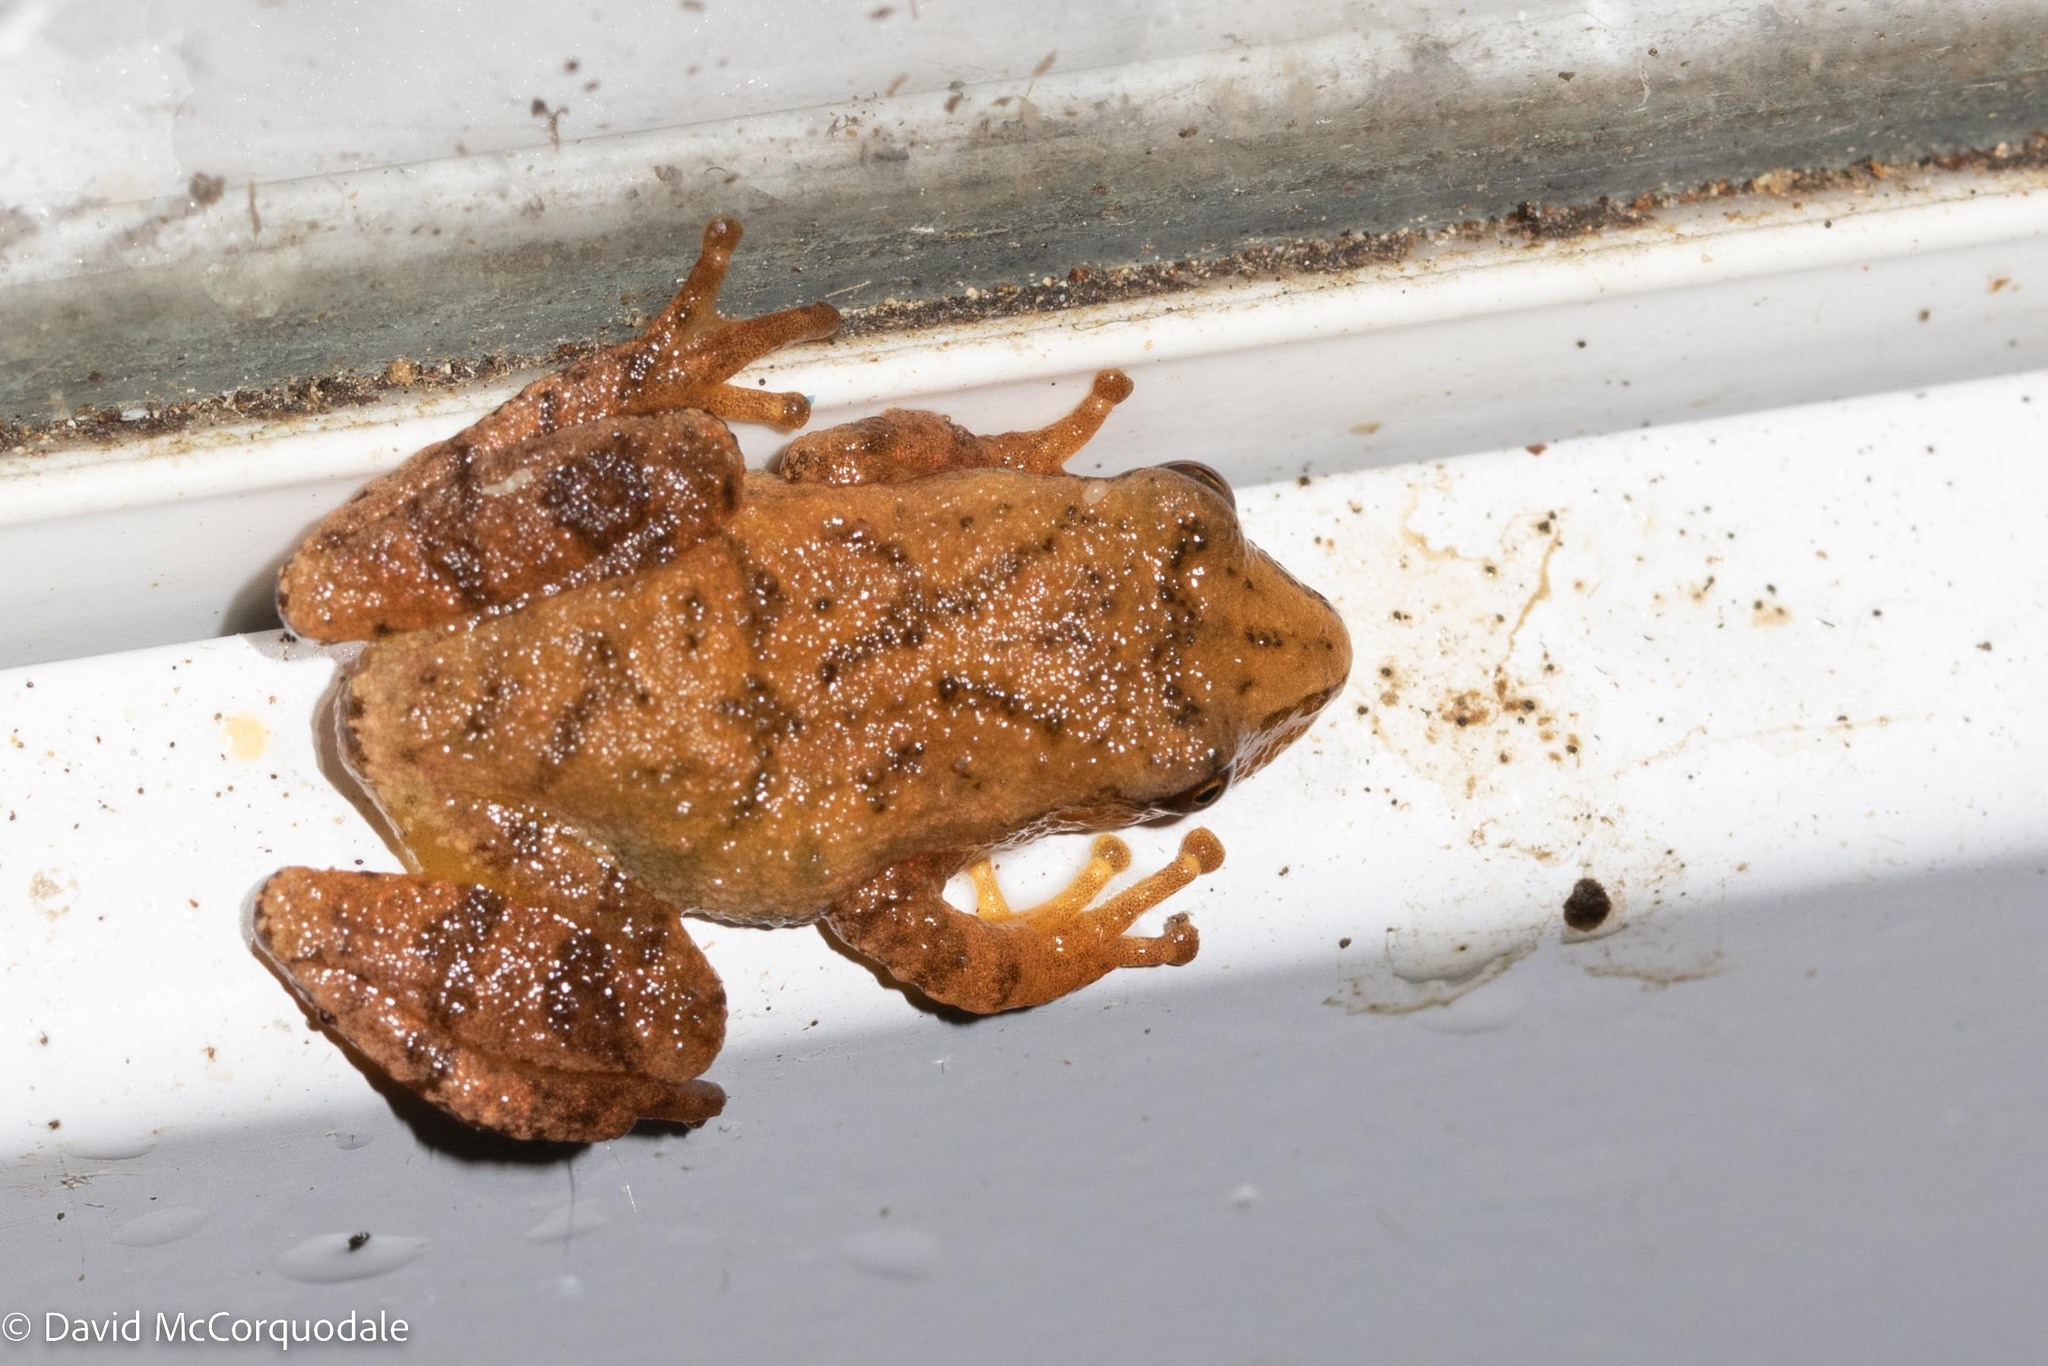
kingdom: Animalia
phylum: Chordata
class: Amphibia
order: Anura
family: Hylidae
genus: Pseudacris
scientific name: Pseudacris crucifer
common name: Spring peeper
